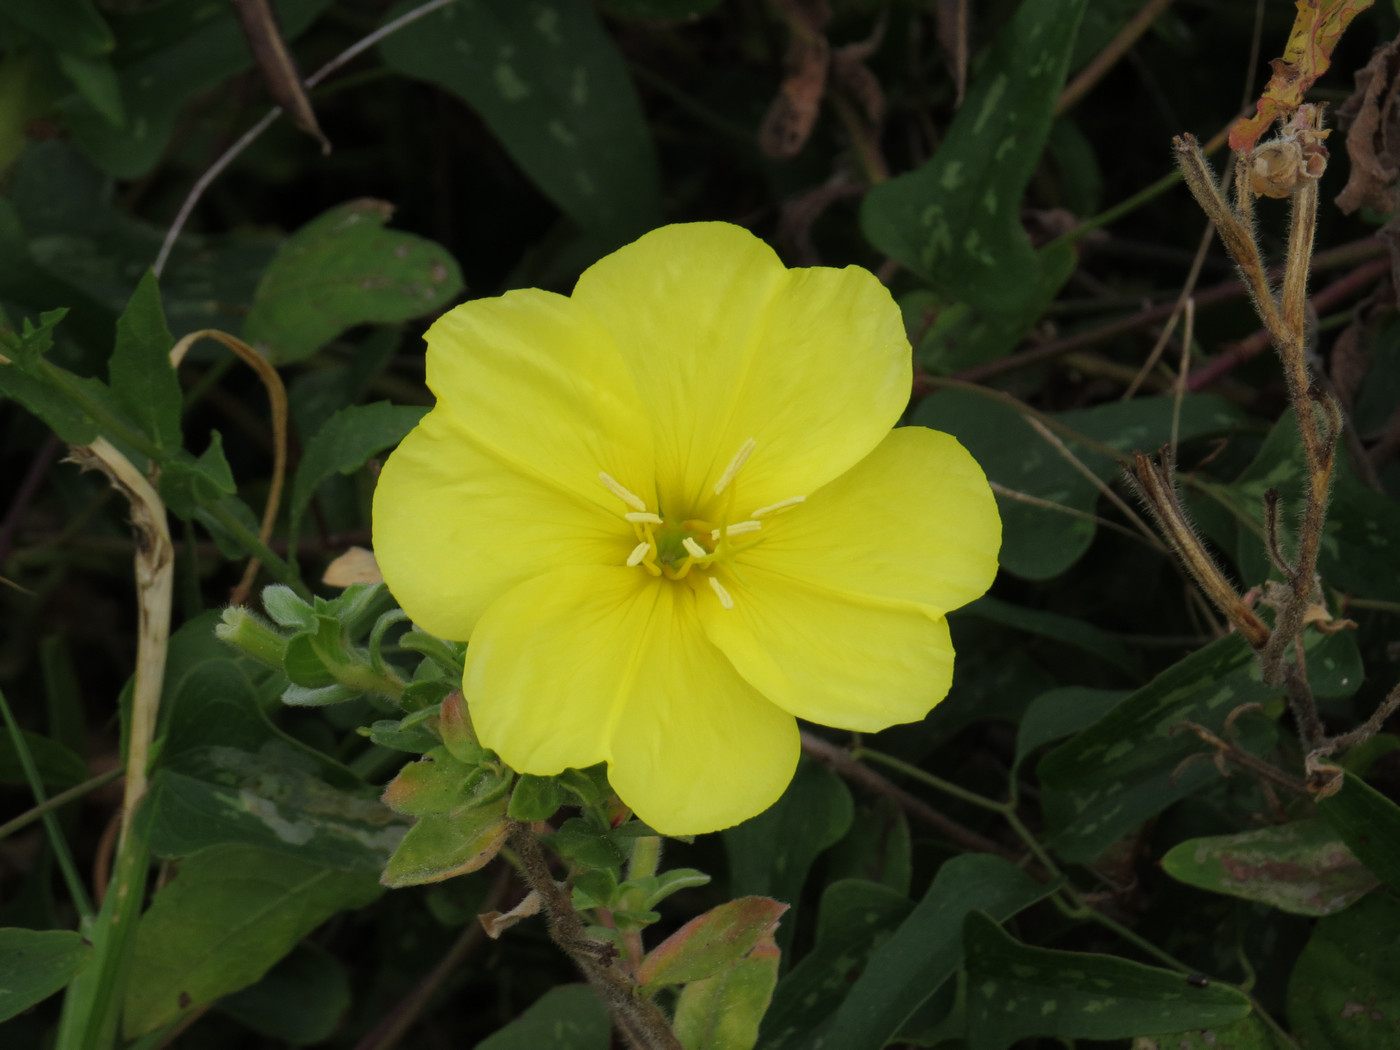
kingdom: Plantae
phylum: Tracheophyta
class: Magnoliopsida
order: Myrtales
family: Onagraceae
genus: Oenothera
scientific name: Oenothera drummondii
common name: Beach evening-primrose
